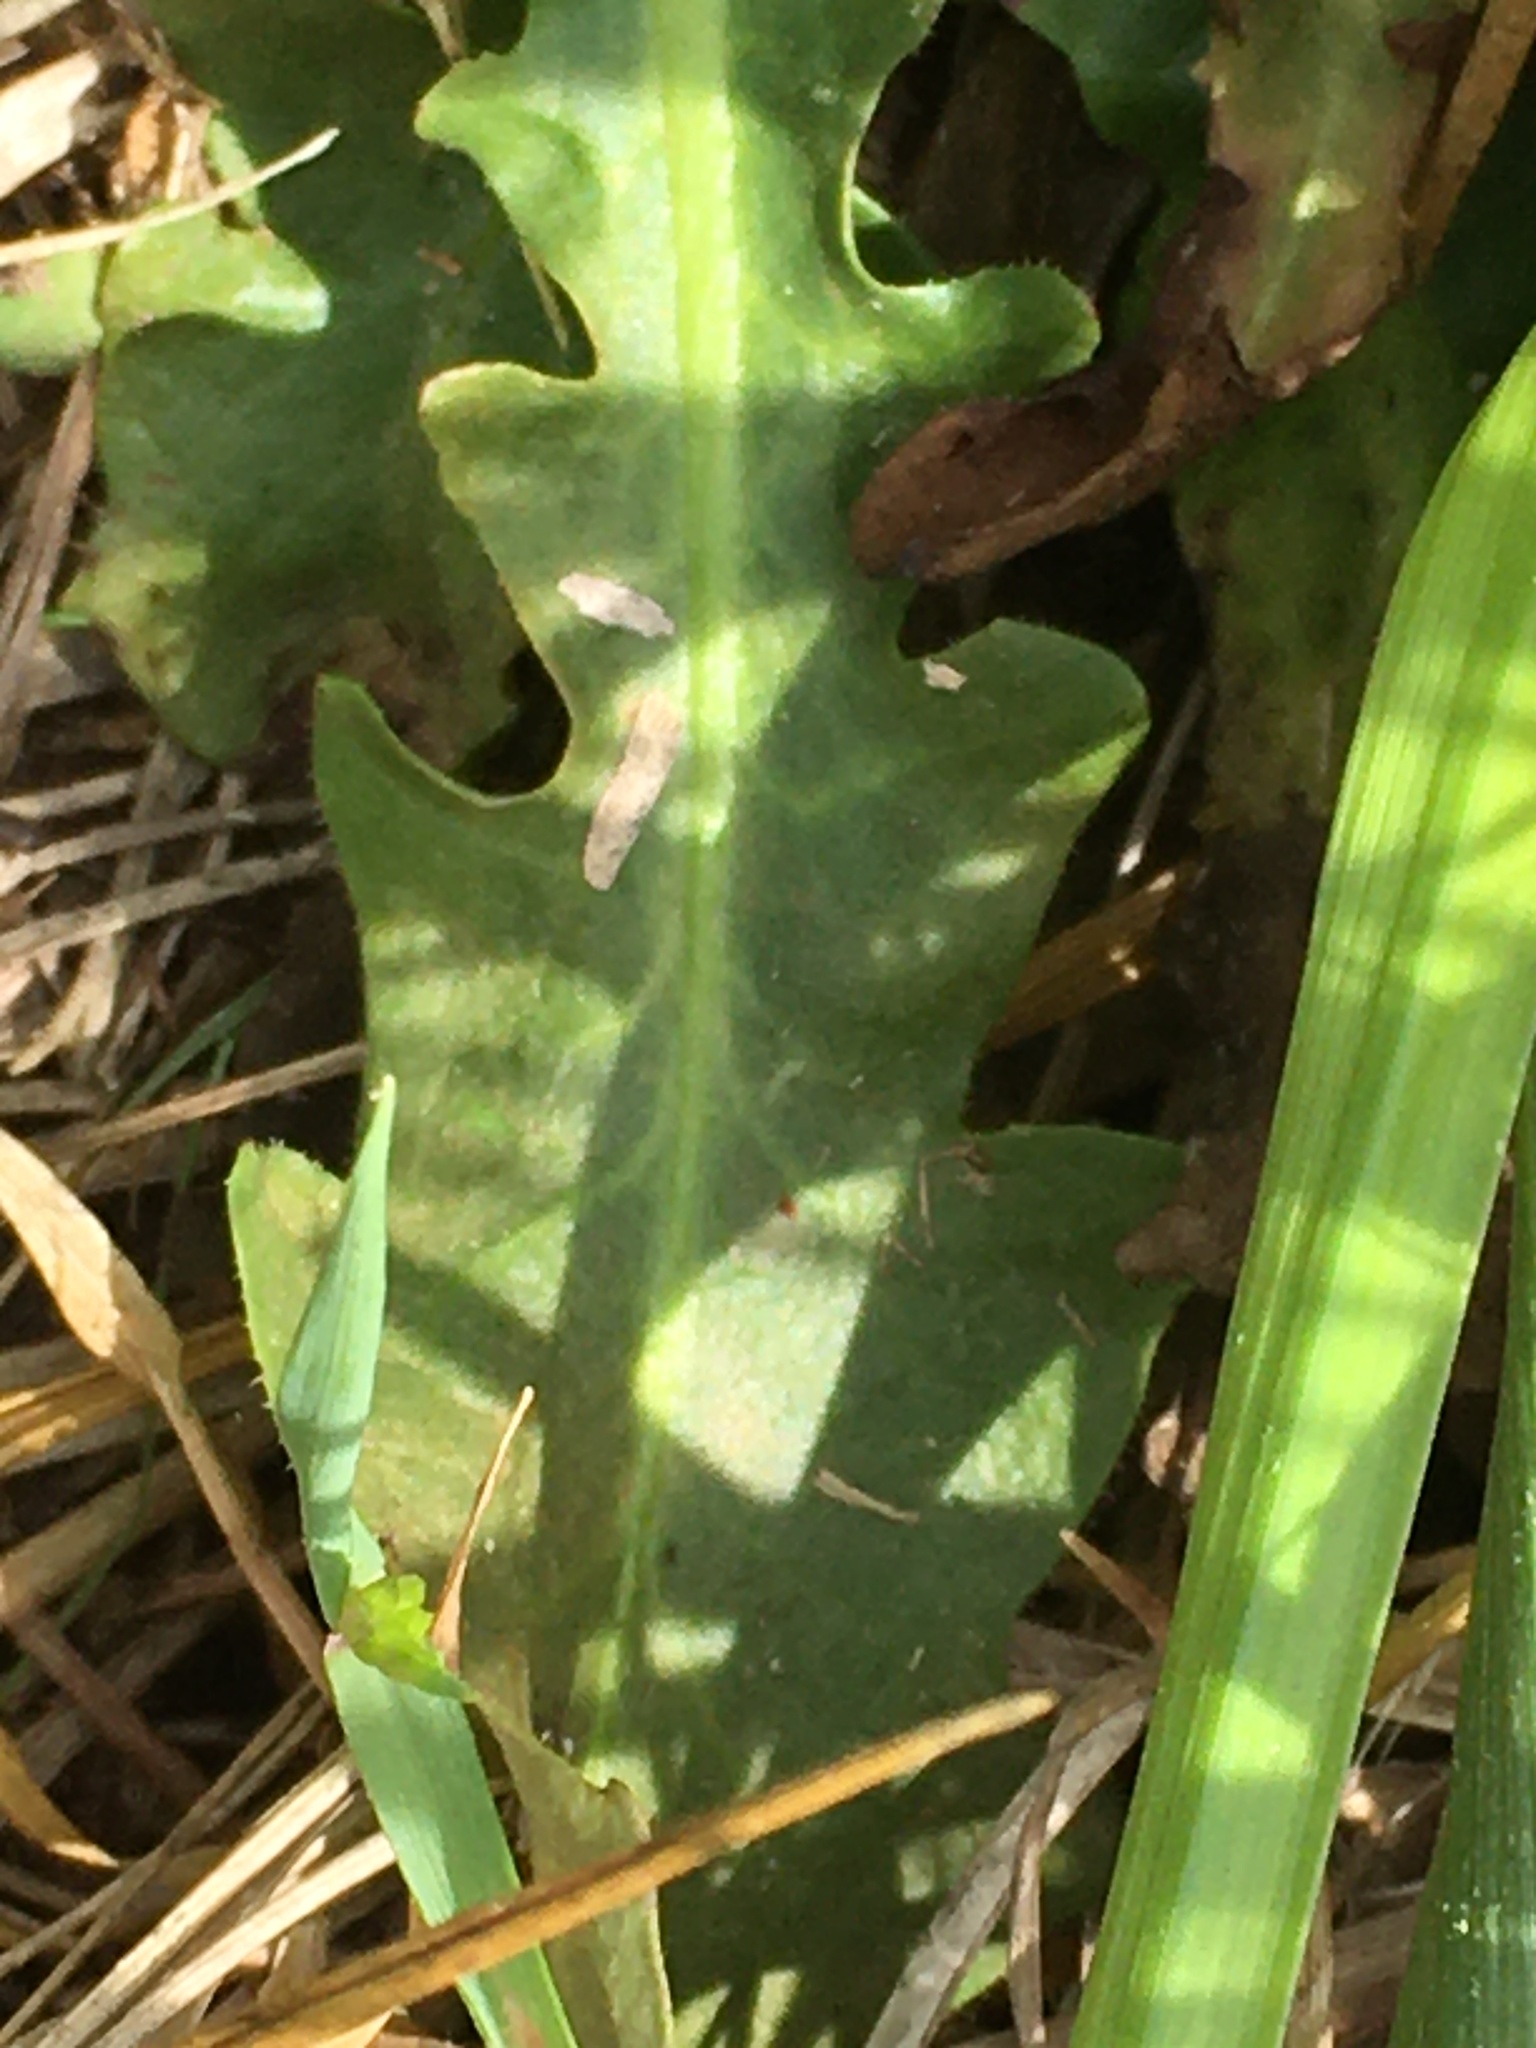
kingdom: Plantae
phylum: Tracheophyta
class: Magnoliopsida
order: Asterales
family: Asteraceae
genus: Hypochaeris
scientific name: Hypochaeris radicata
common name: Flatweed
